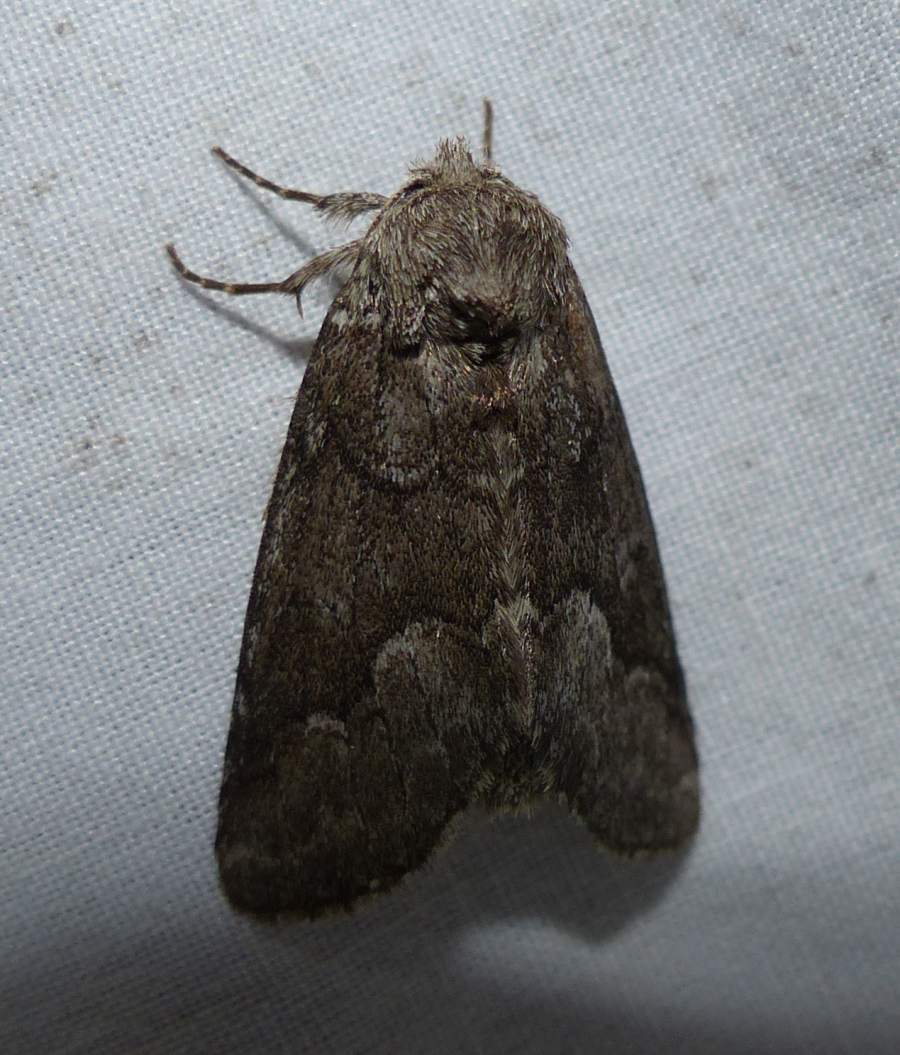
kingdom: Animalia
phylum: Arthropoda
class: Insecta
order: Lepidoptera
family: Notodontidae
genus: Lochmaeus
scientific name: Lochmaeus bilineata
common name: Double-lined prominent
